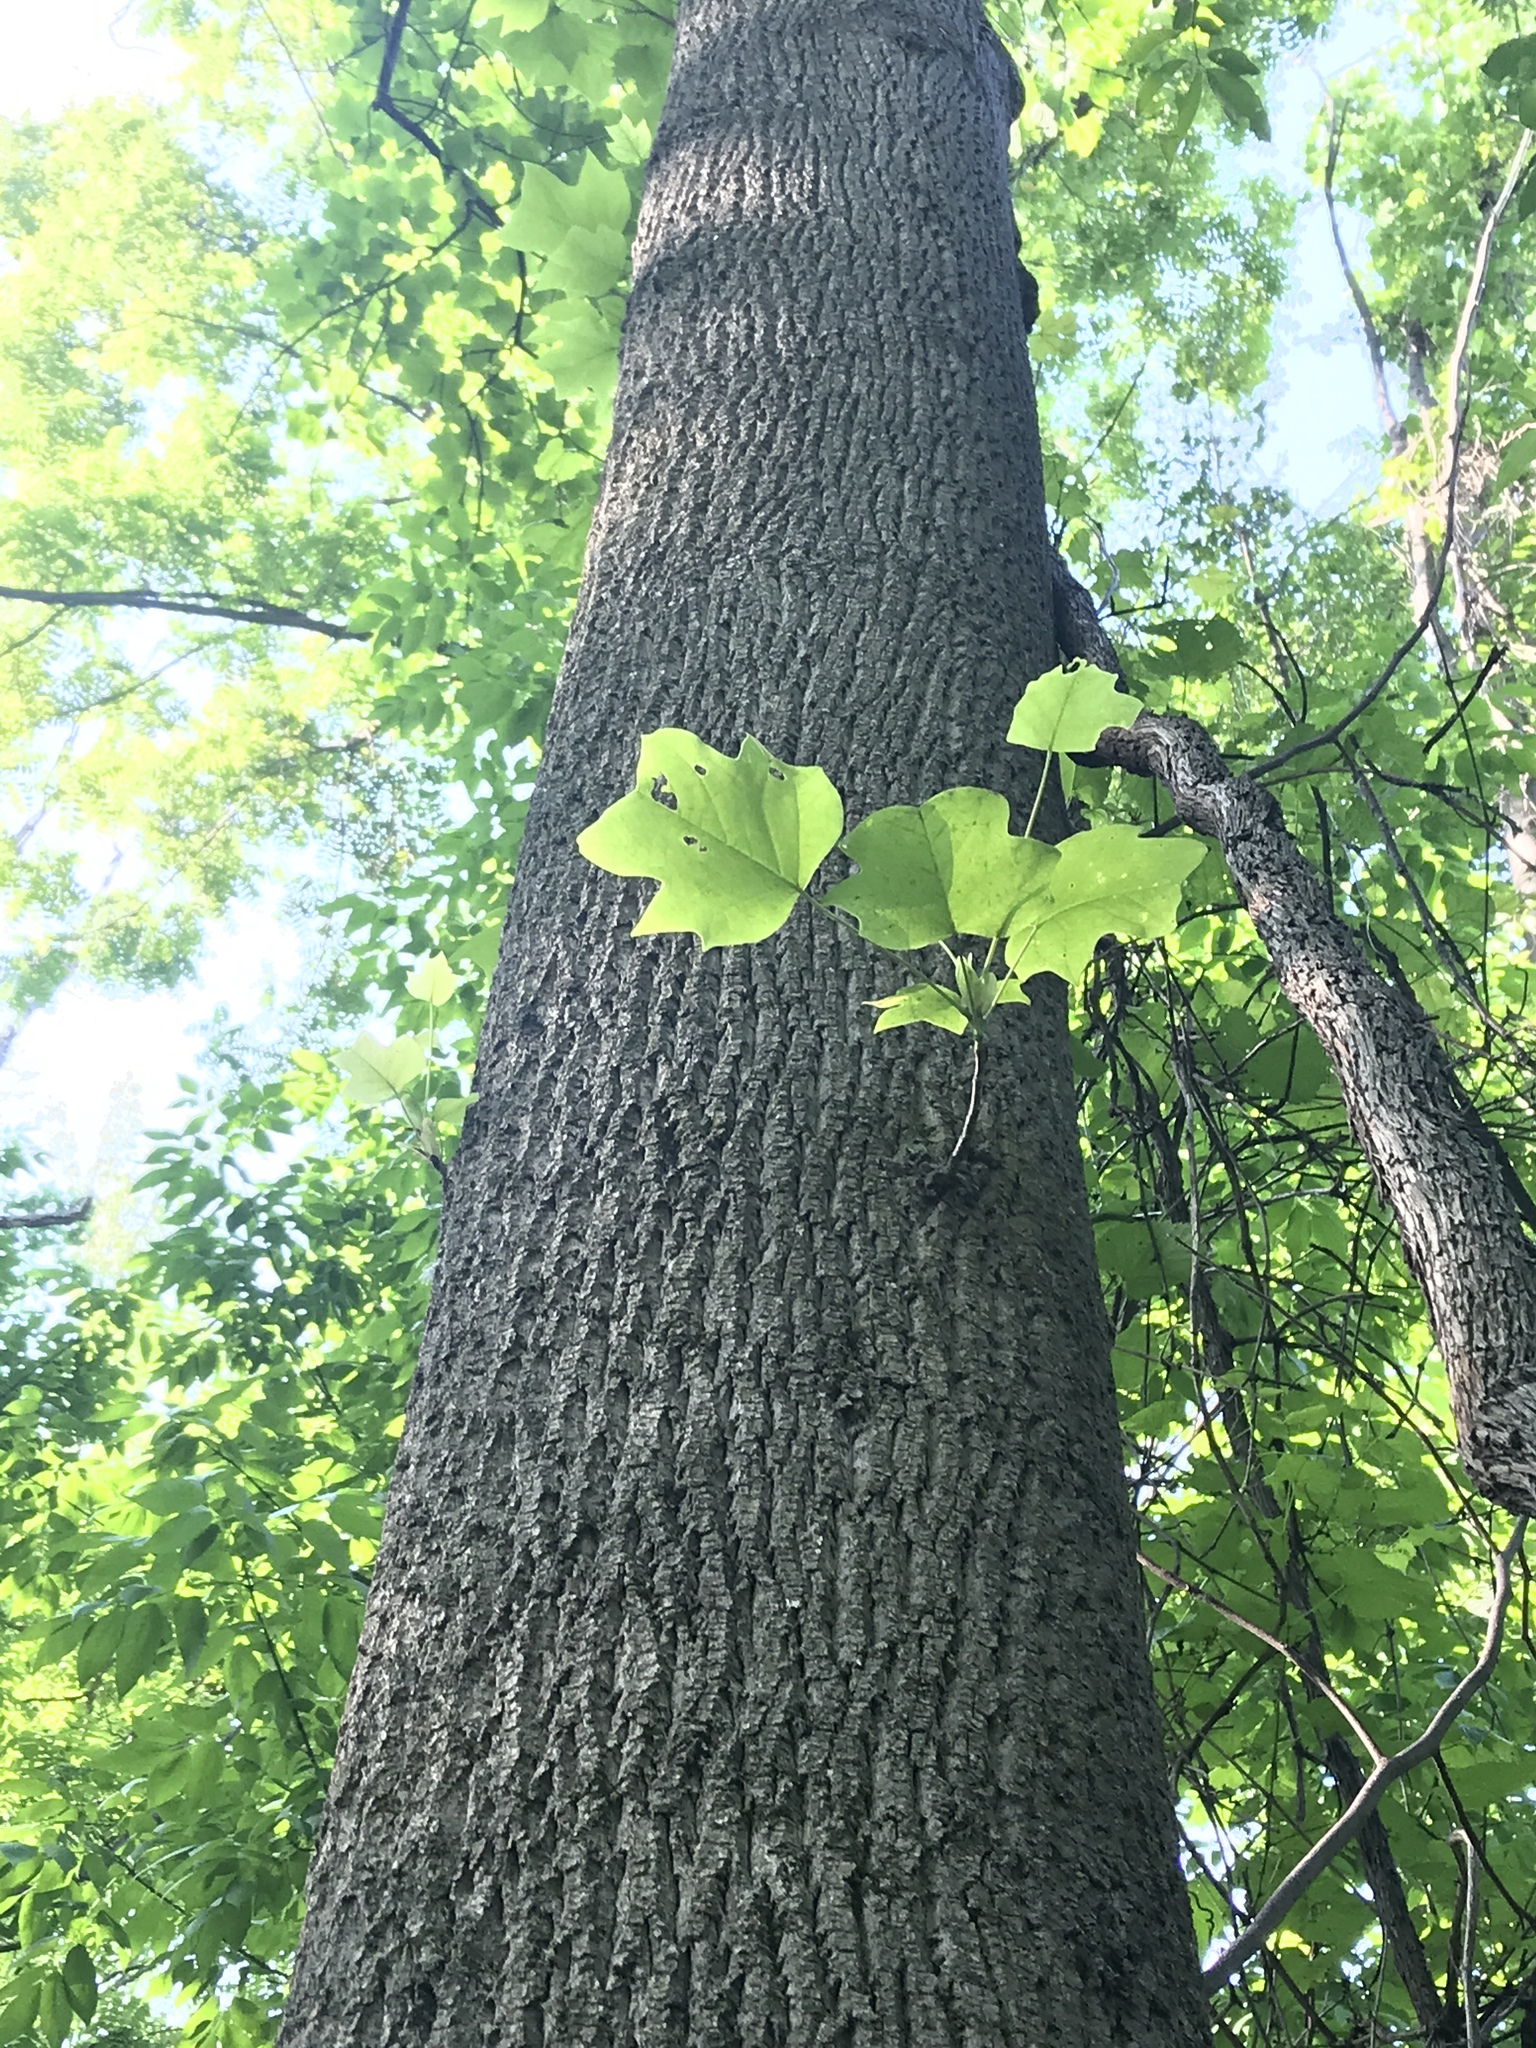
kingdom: Plantae
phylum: Tracheophyta
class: Magnoliopsida
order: Magnoliales
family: Magnoliaceae
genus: Liriodendron
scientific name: Liriodendron tulipifera
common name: Tulip tree
